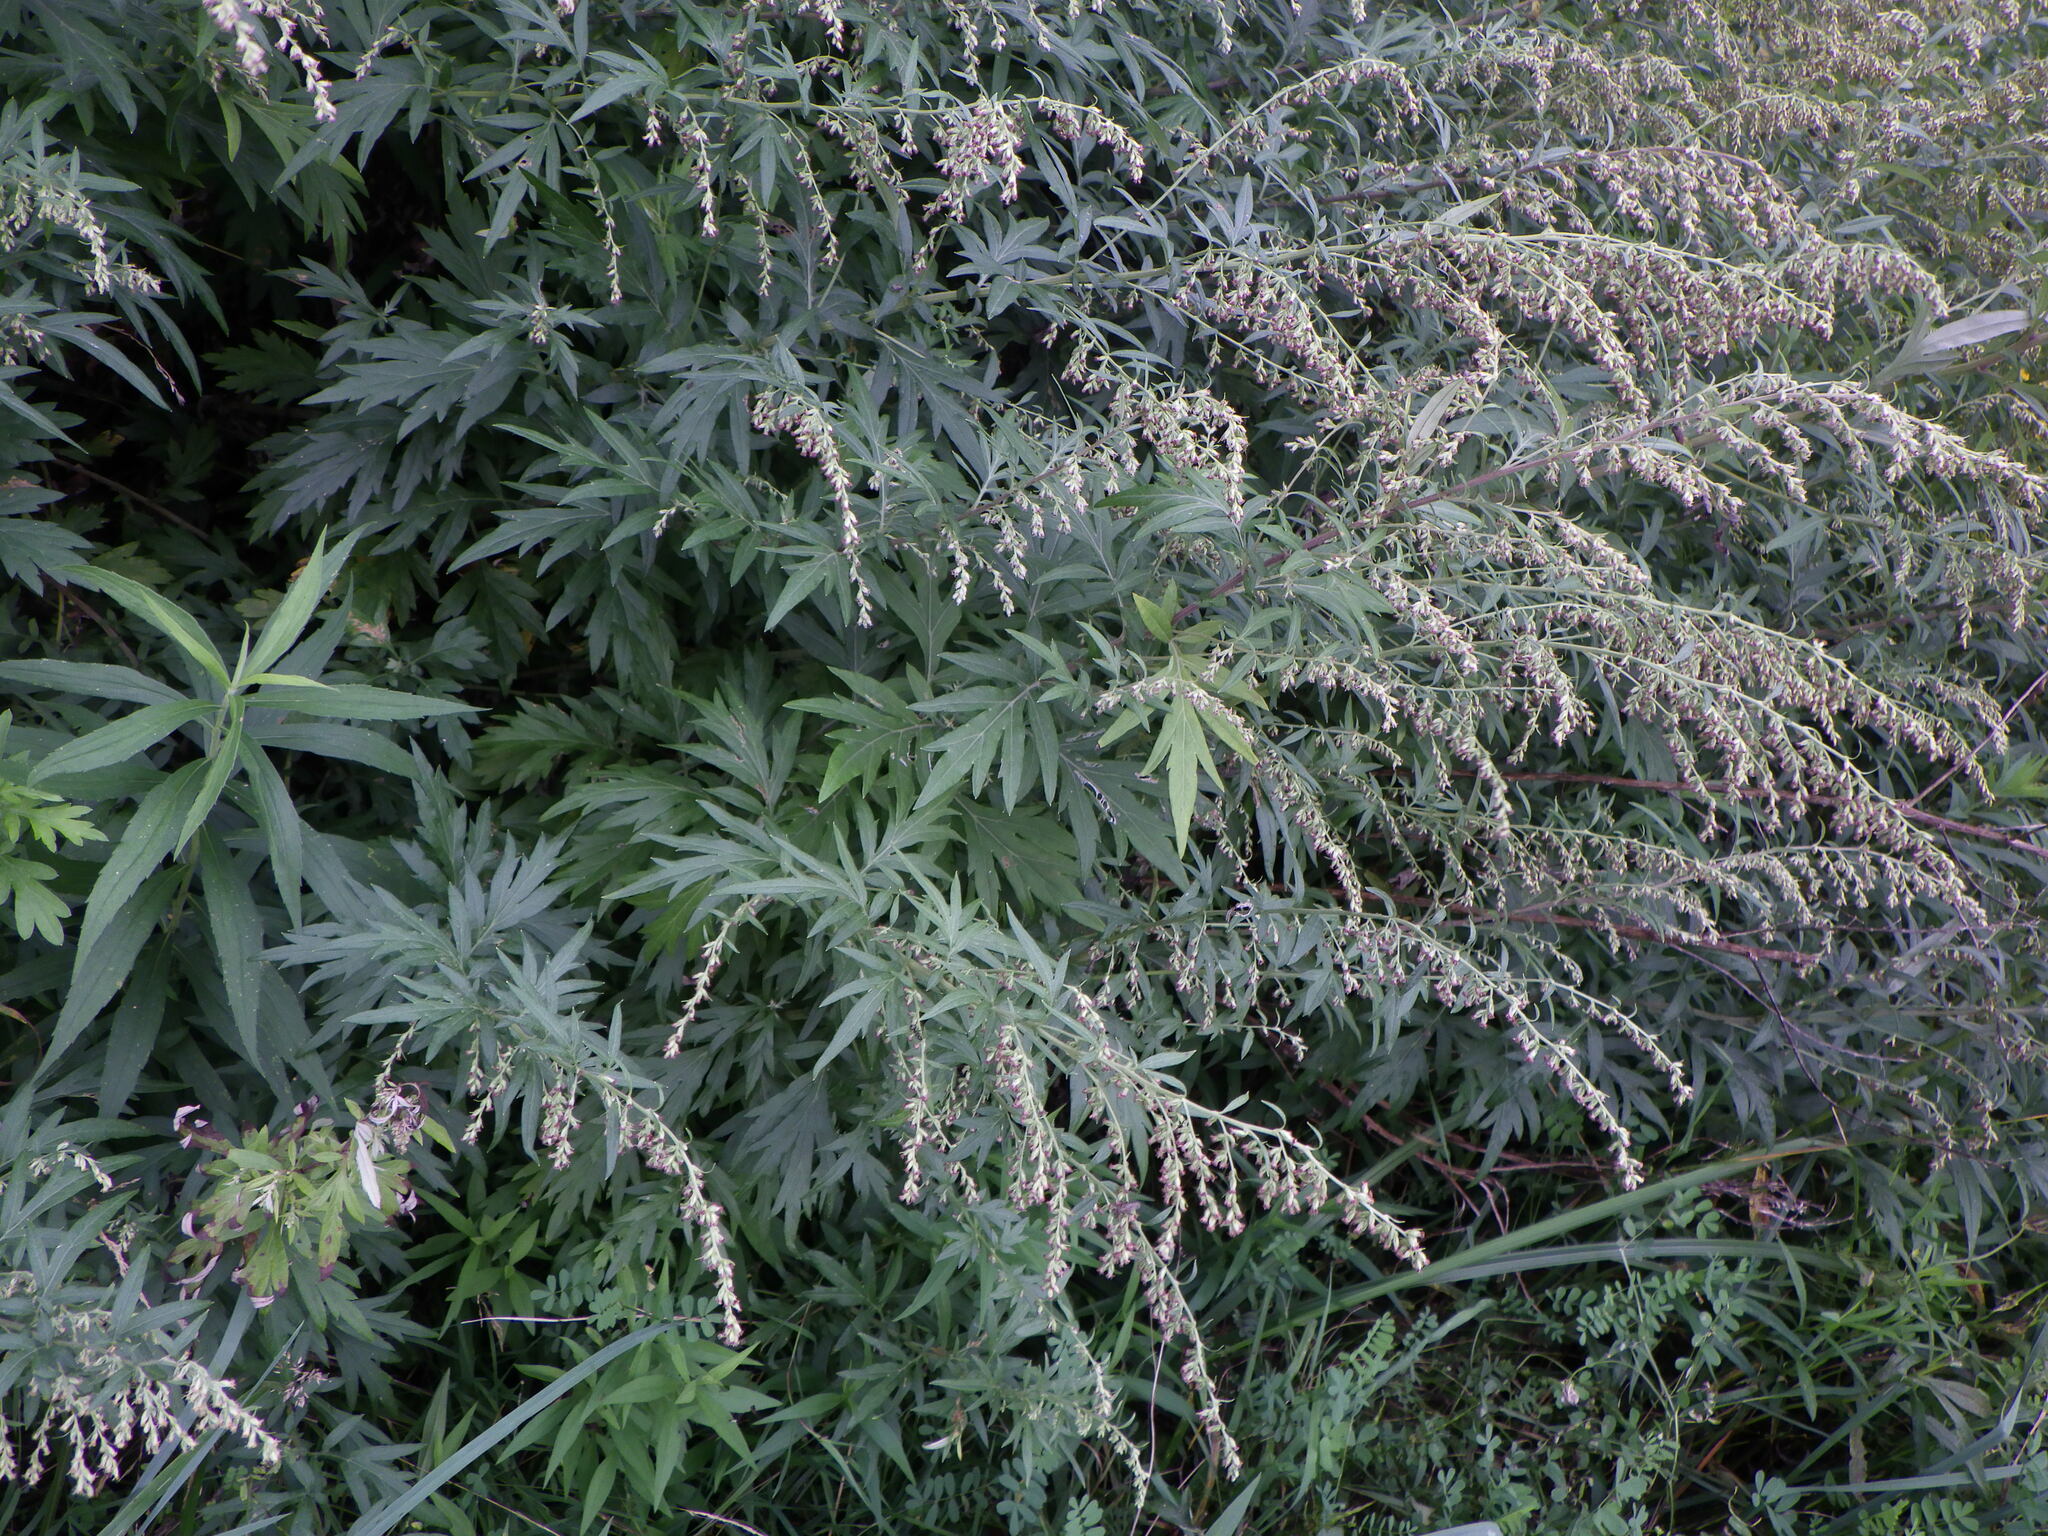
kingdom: Plantae
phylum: Tracheophyta
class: Magnoliopsida
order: Asterales
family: Asteraceae
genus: Artemisia
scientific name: Artemisia vulgaris
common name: Mugwort
